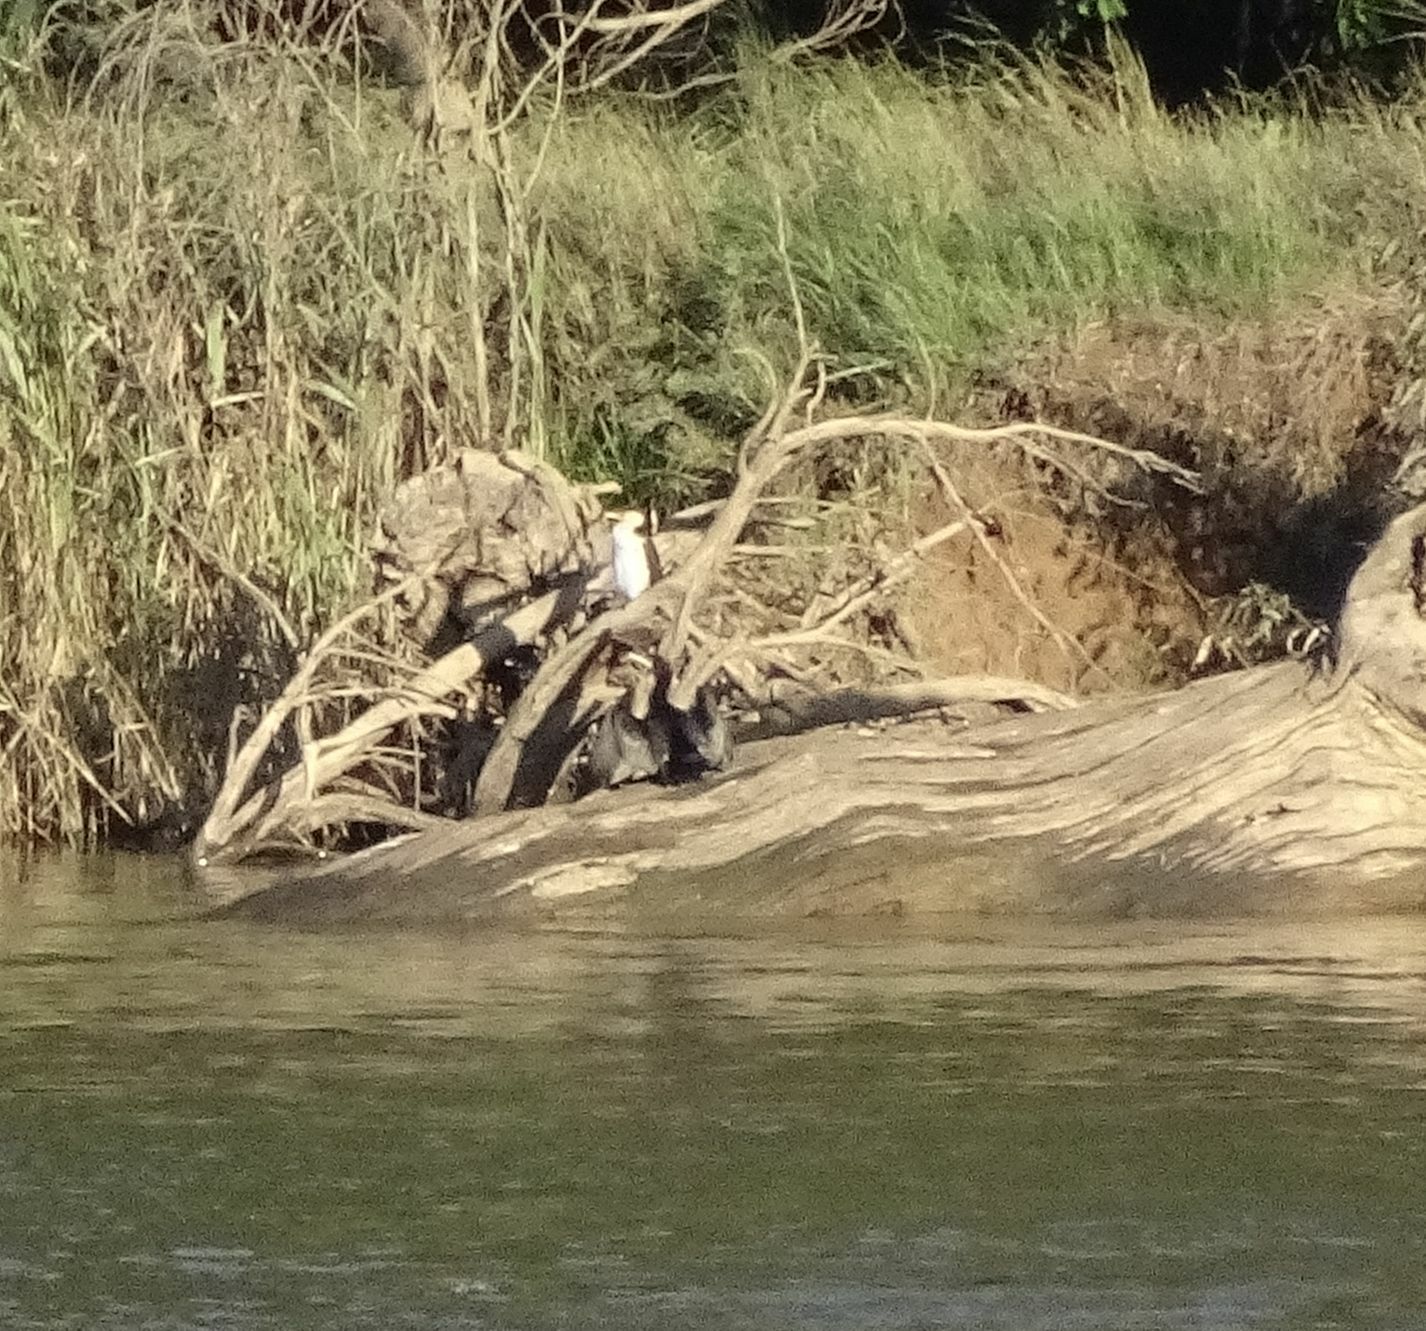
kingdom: Animalia
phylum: Chordata
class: Aves
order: Suliformes
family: Phalacrocoracidae
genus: Microcarbo
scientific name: Microcarbo melanoleucos
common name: Little pied cormorant
